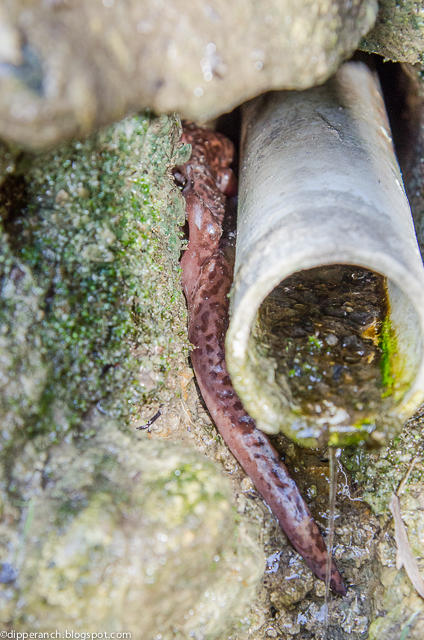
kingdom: Animalia
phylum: Chordata
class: Amphibia
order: Caudata
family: Ambystomatidae
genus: Dicamptodon
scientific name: Dicamptodon ensatus
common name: California giant salamander
